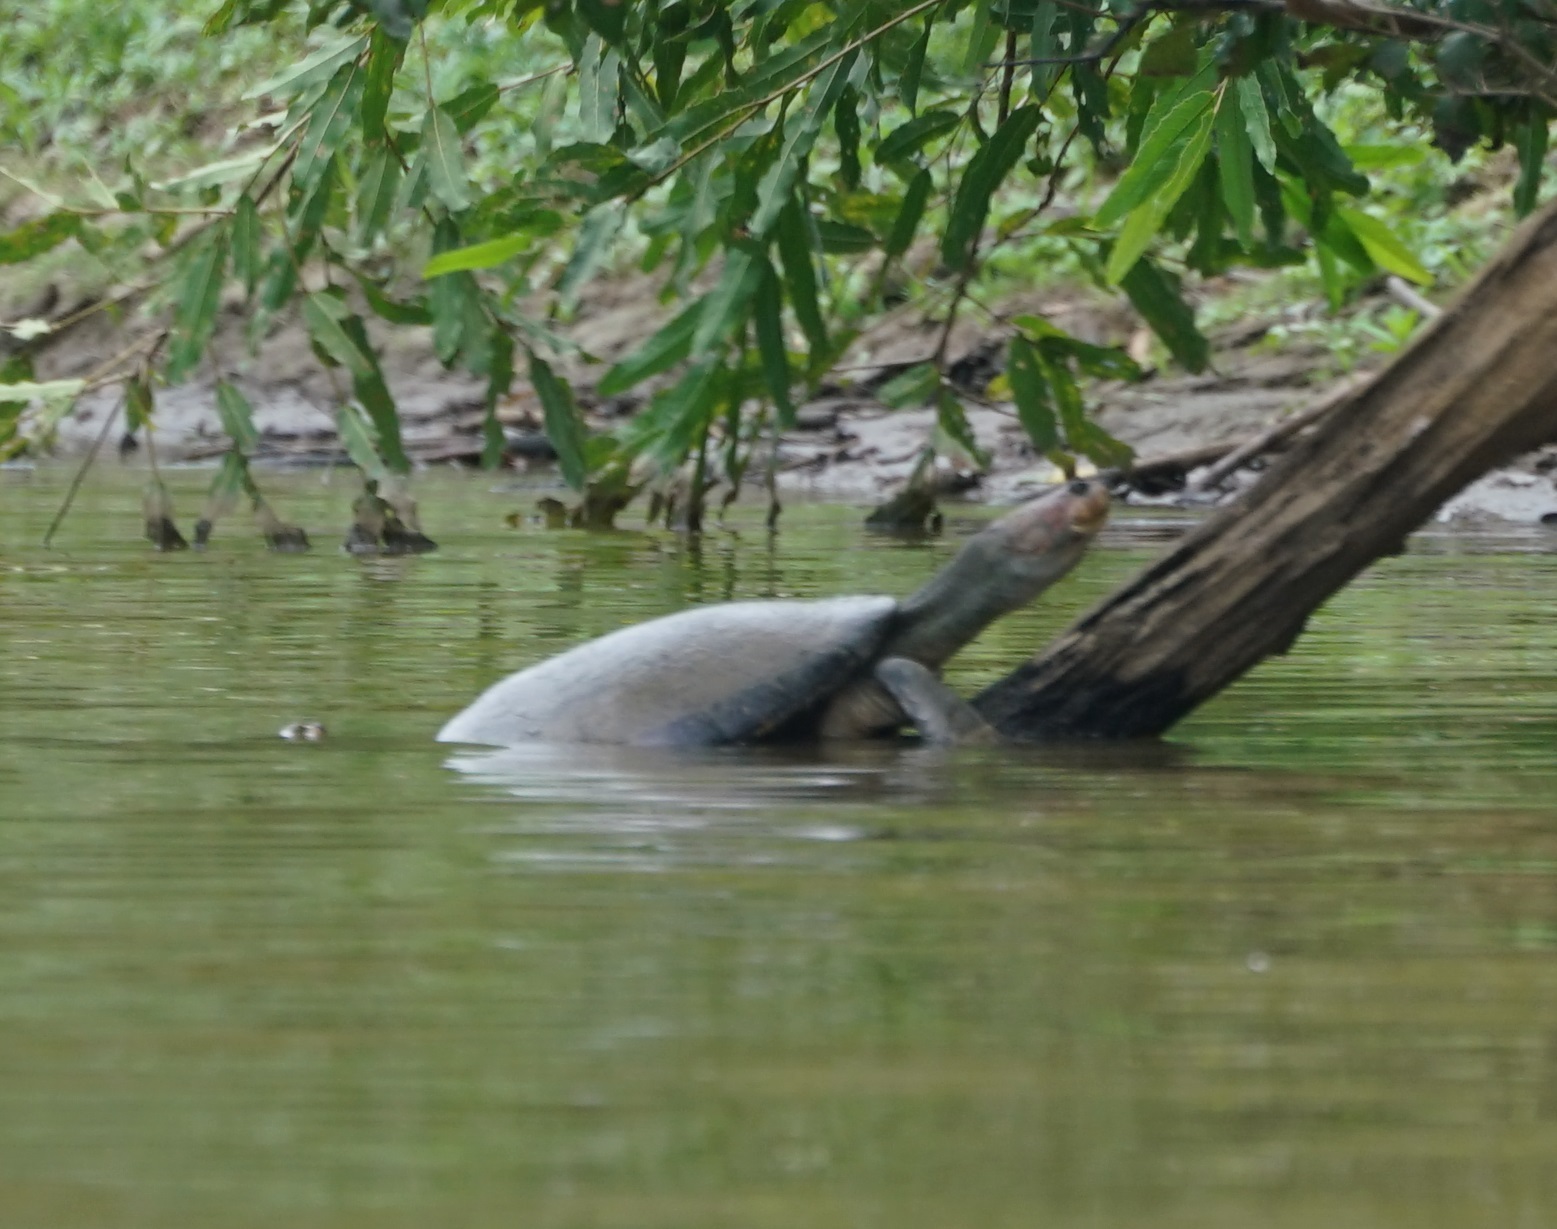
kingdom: Animalia
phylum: Chordata
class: Testudines
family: Podocnemididae
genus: Podocnemis
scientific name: Podocnemis expansa
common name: South american river turtle
